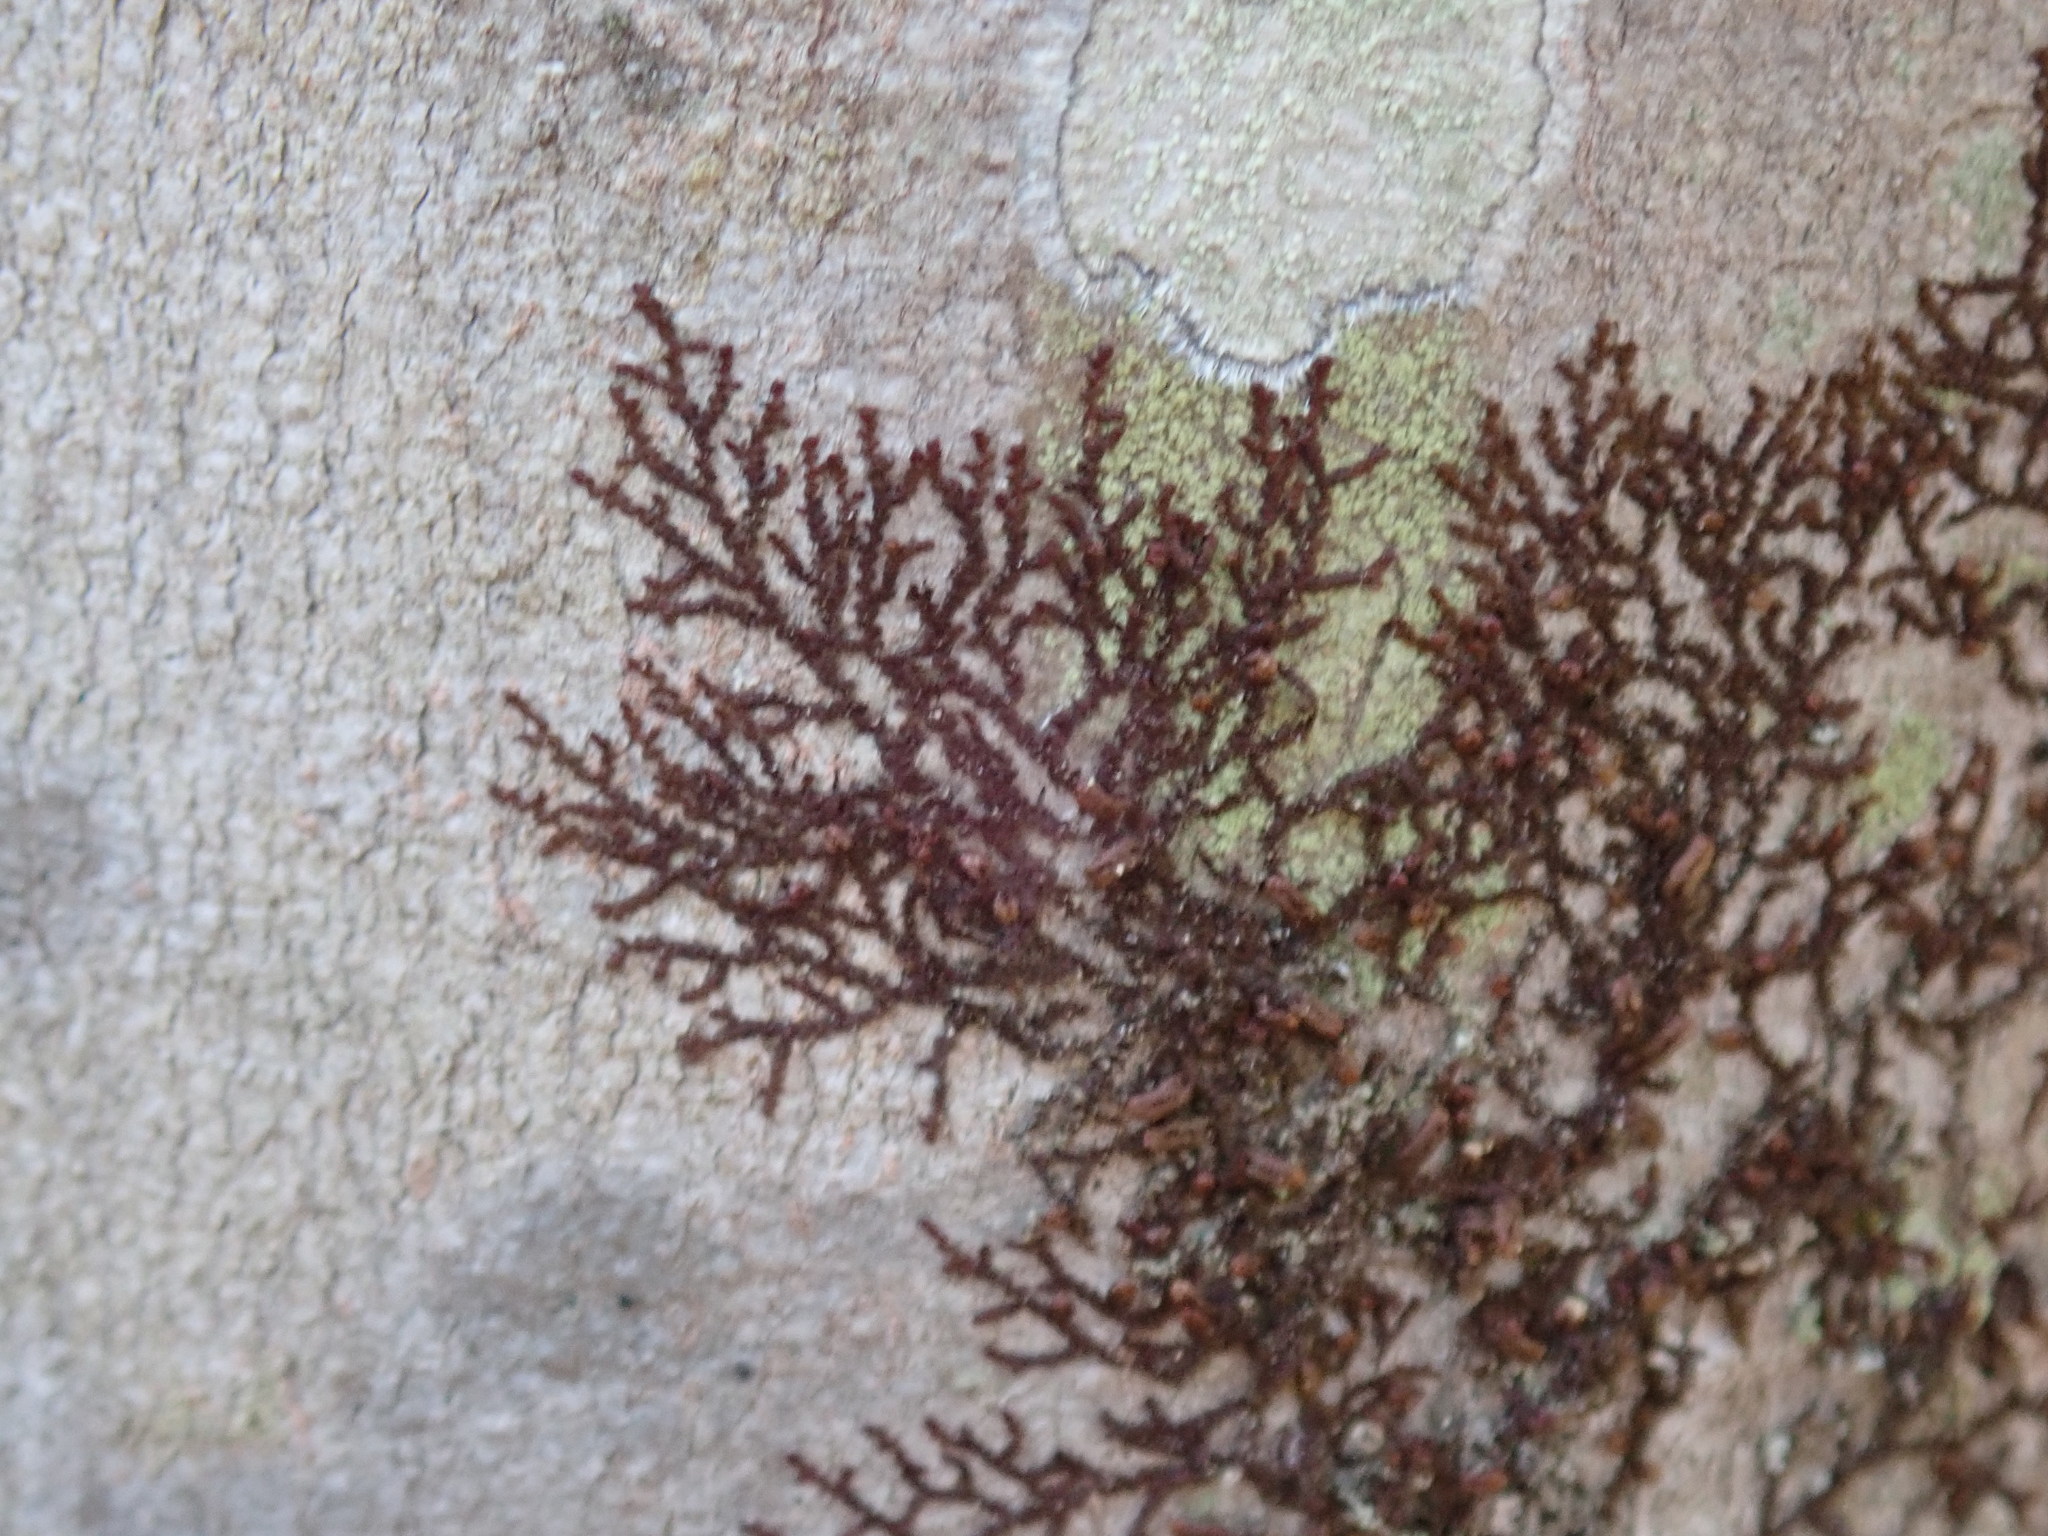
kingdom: Plantae
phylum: Marchantiophyta
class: Jungermanniopsida
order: Porellales
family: Frullaniaceae
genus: Frullania
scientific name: Frullania
